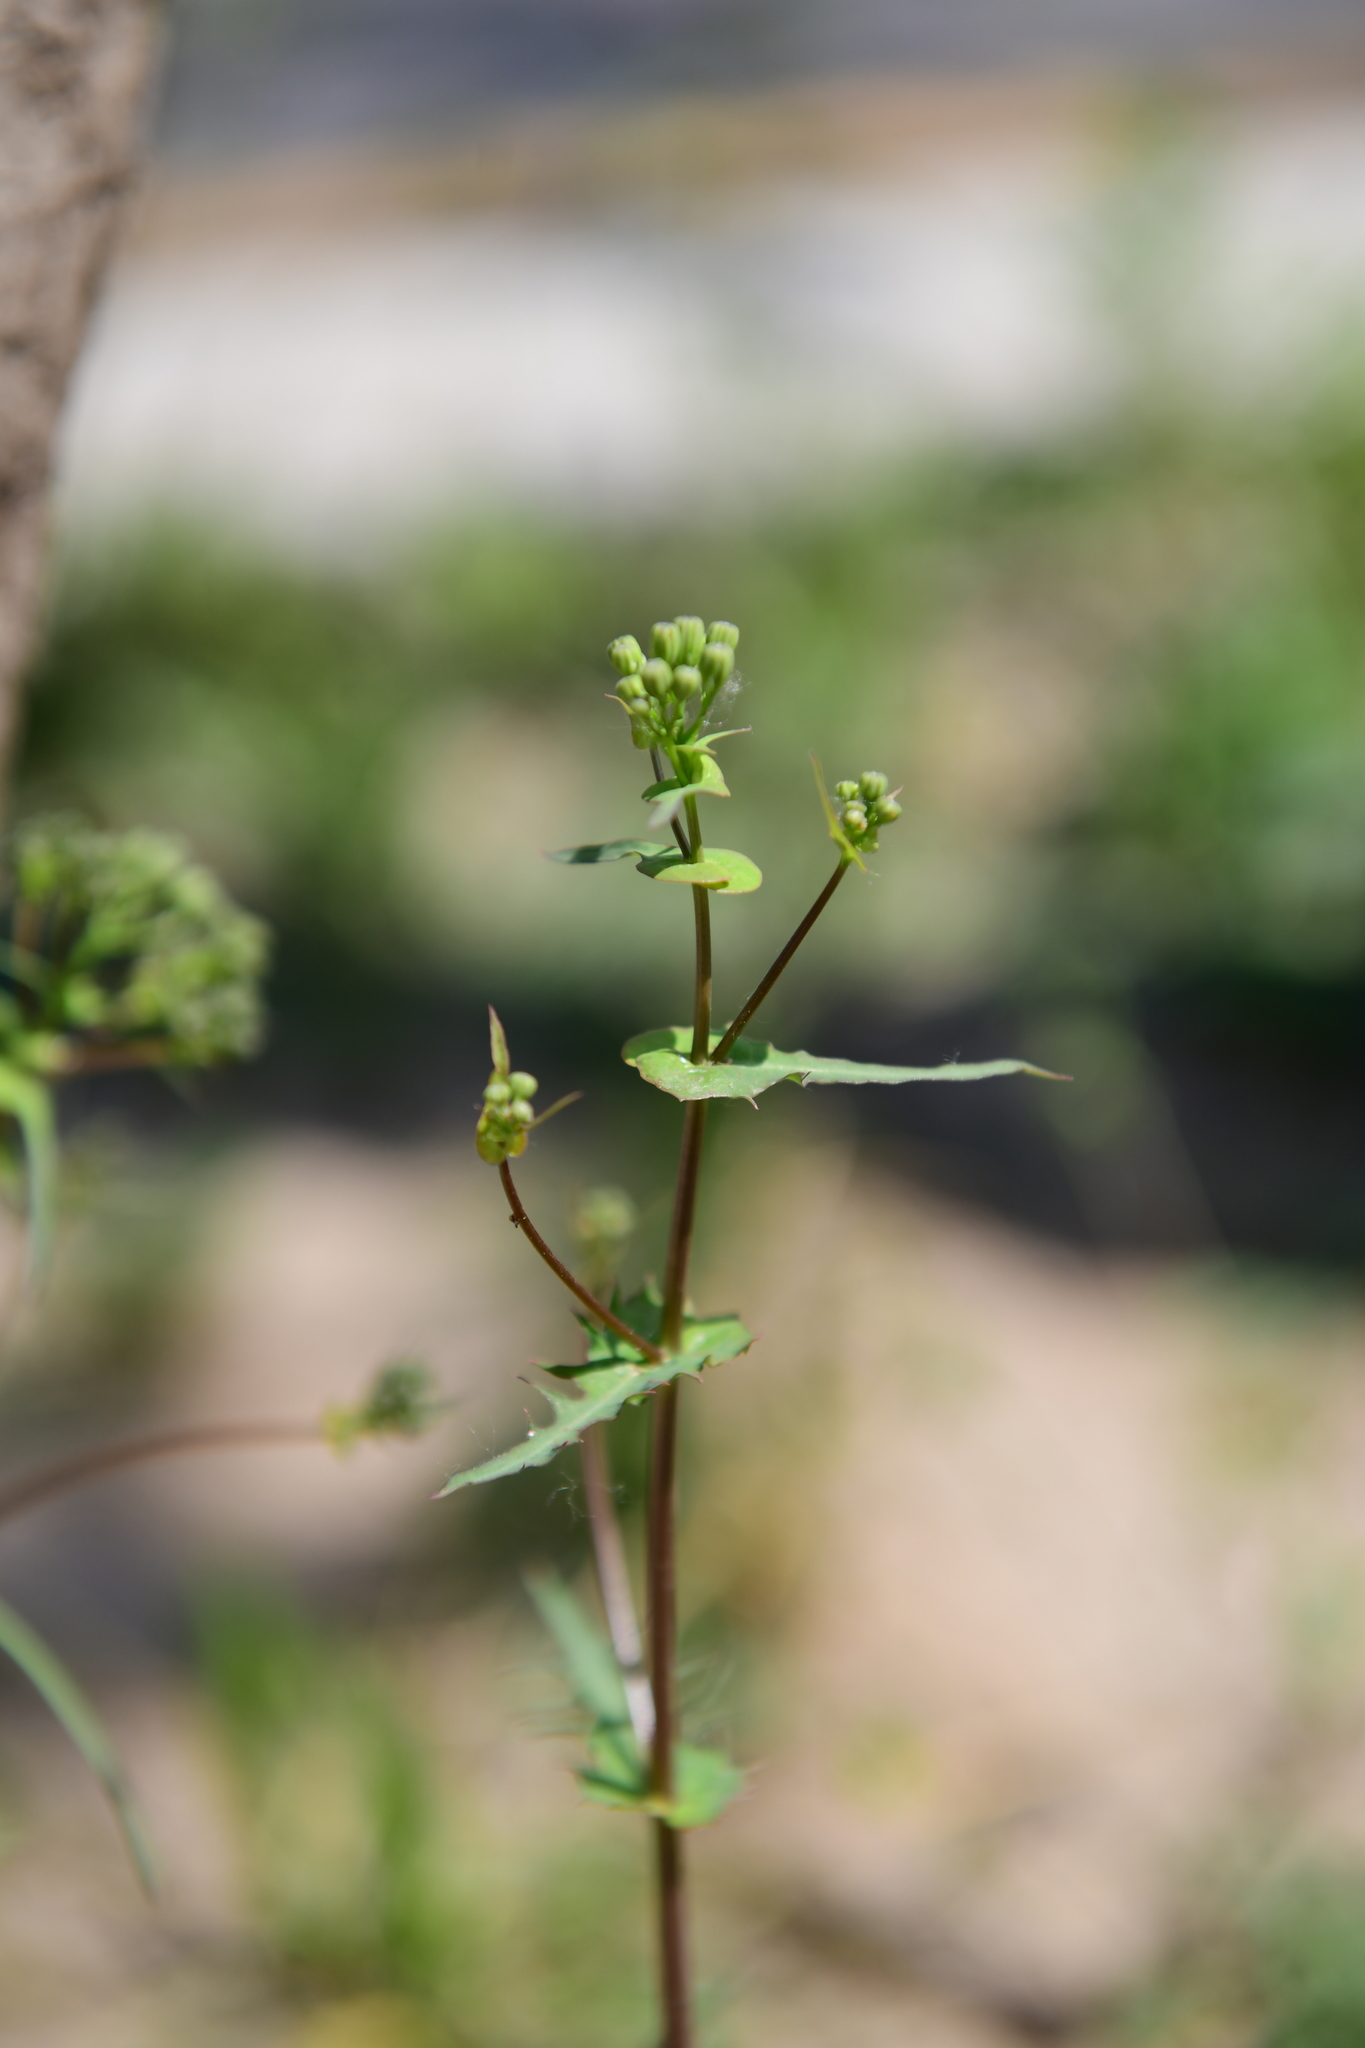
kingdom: Plantae
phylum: Tracheophyta
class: Magnoliopsida
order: Asterales
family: Asteraceae
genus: Crepidiastrum
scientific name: Crepidiastrum sonchifolium
